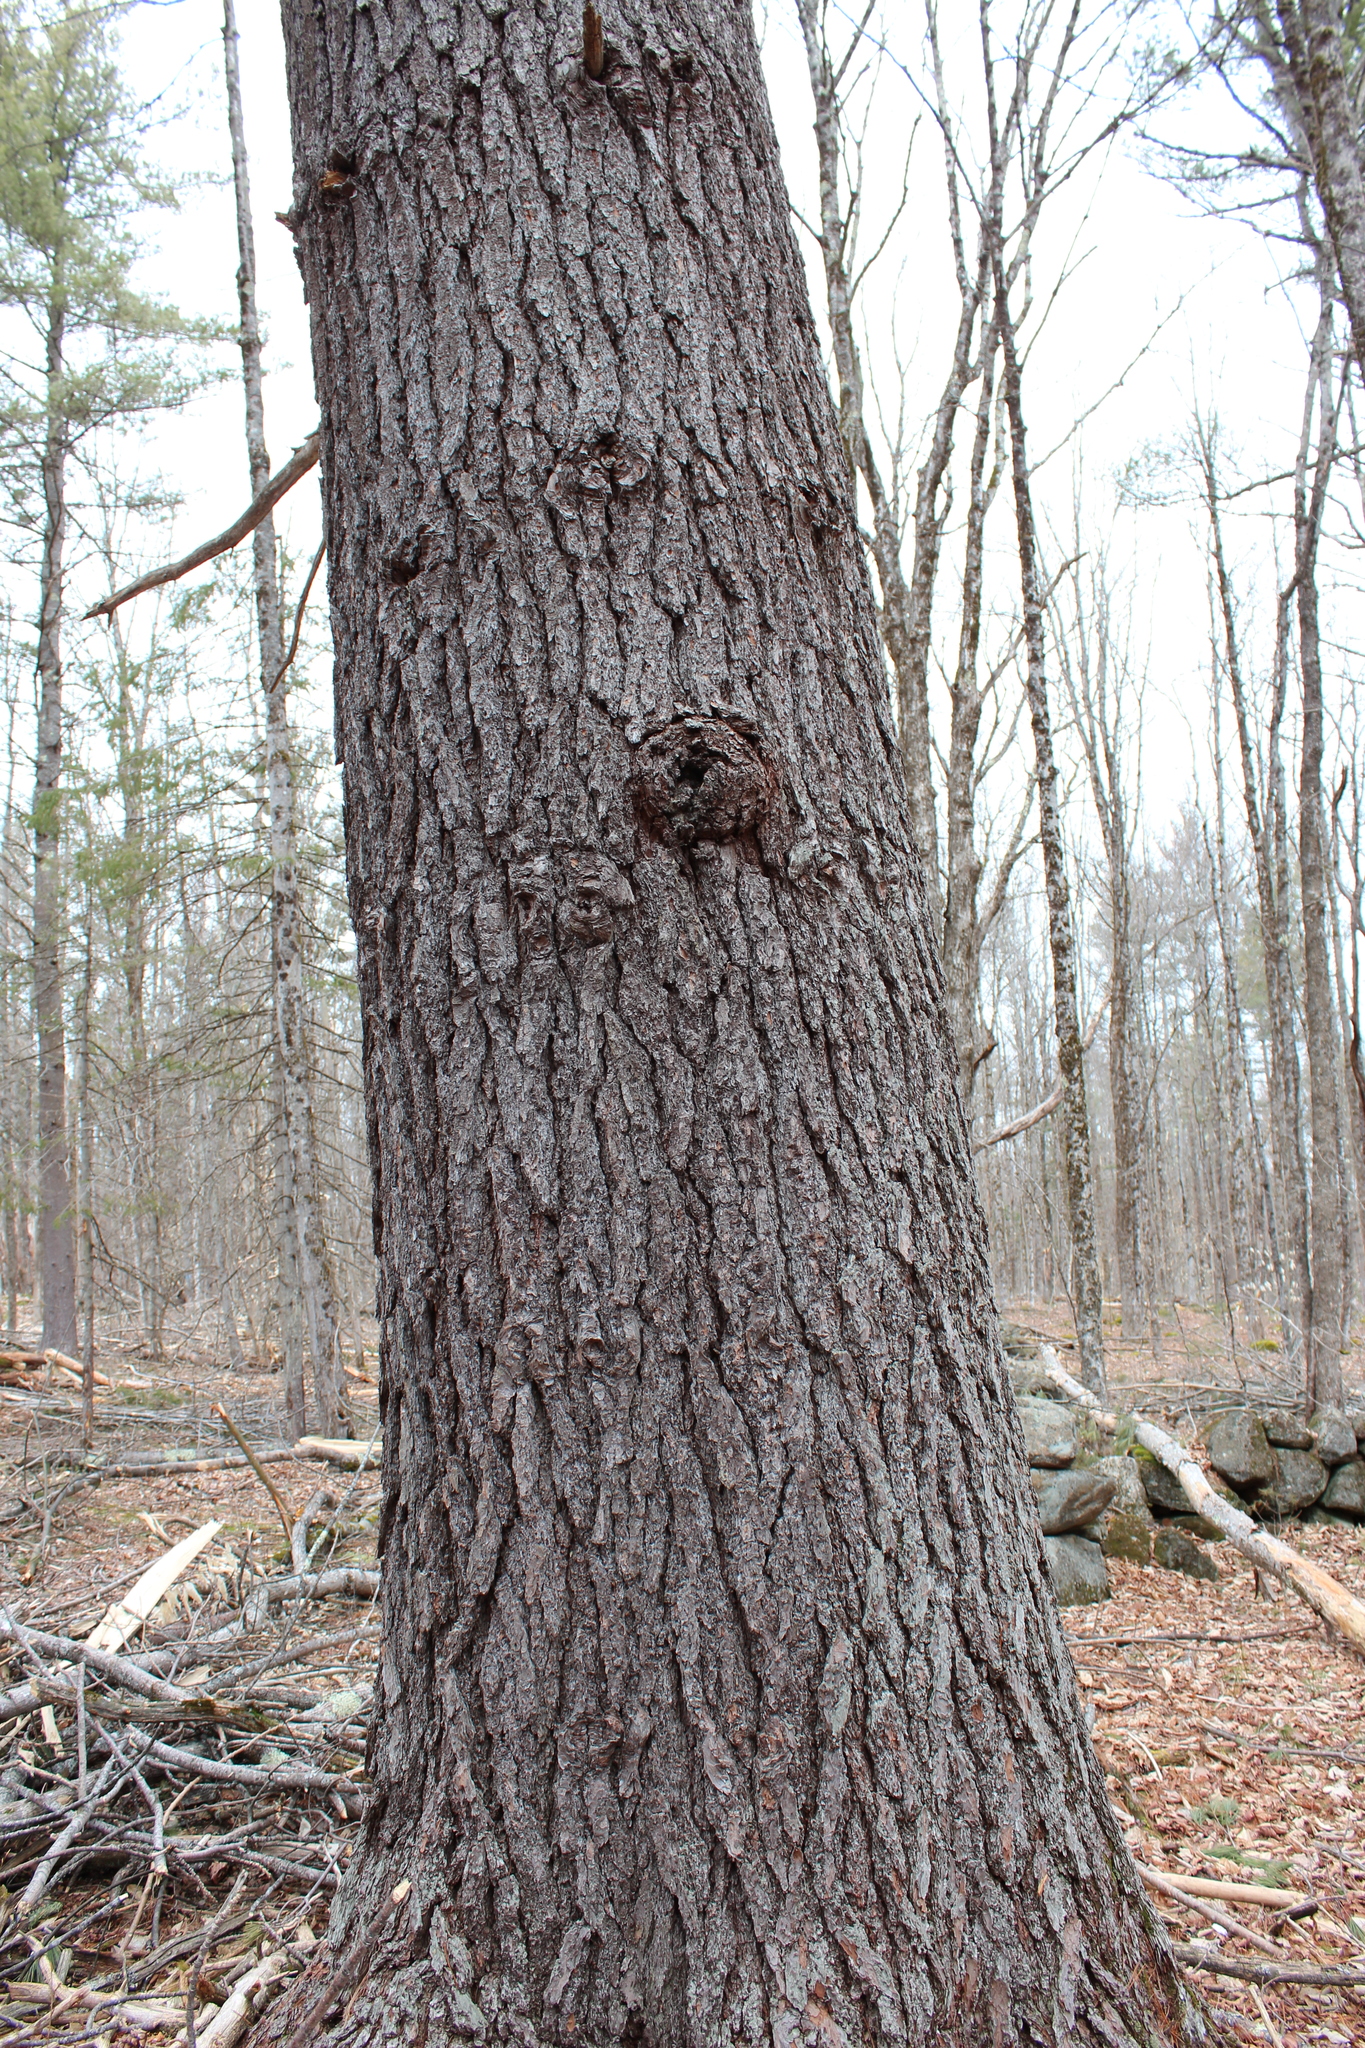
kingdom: Plantae
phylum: Tracheophyta
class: Pinopsida
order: Pinales
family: Pinaceae
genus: Pinus
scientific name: Pinus strobus
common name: Weymouth pine
